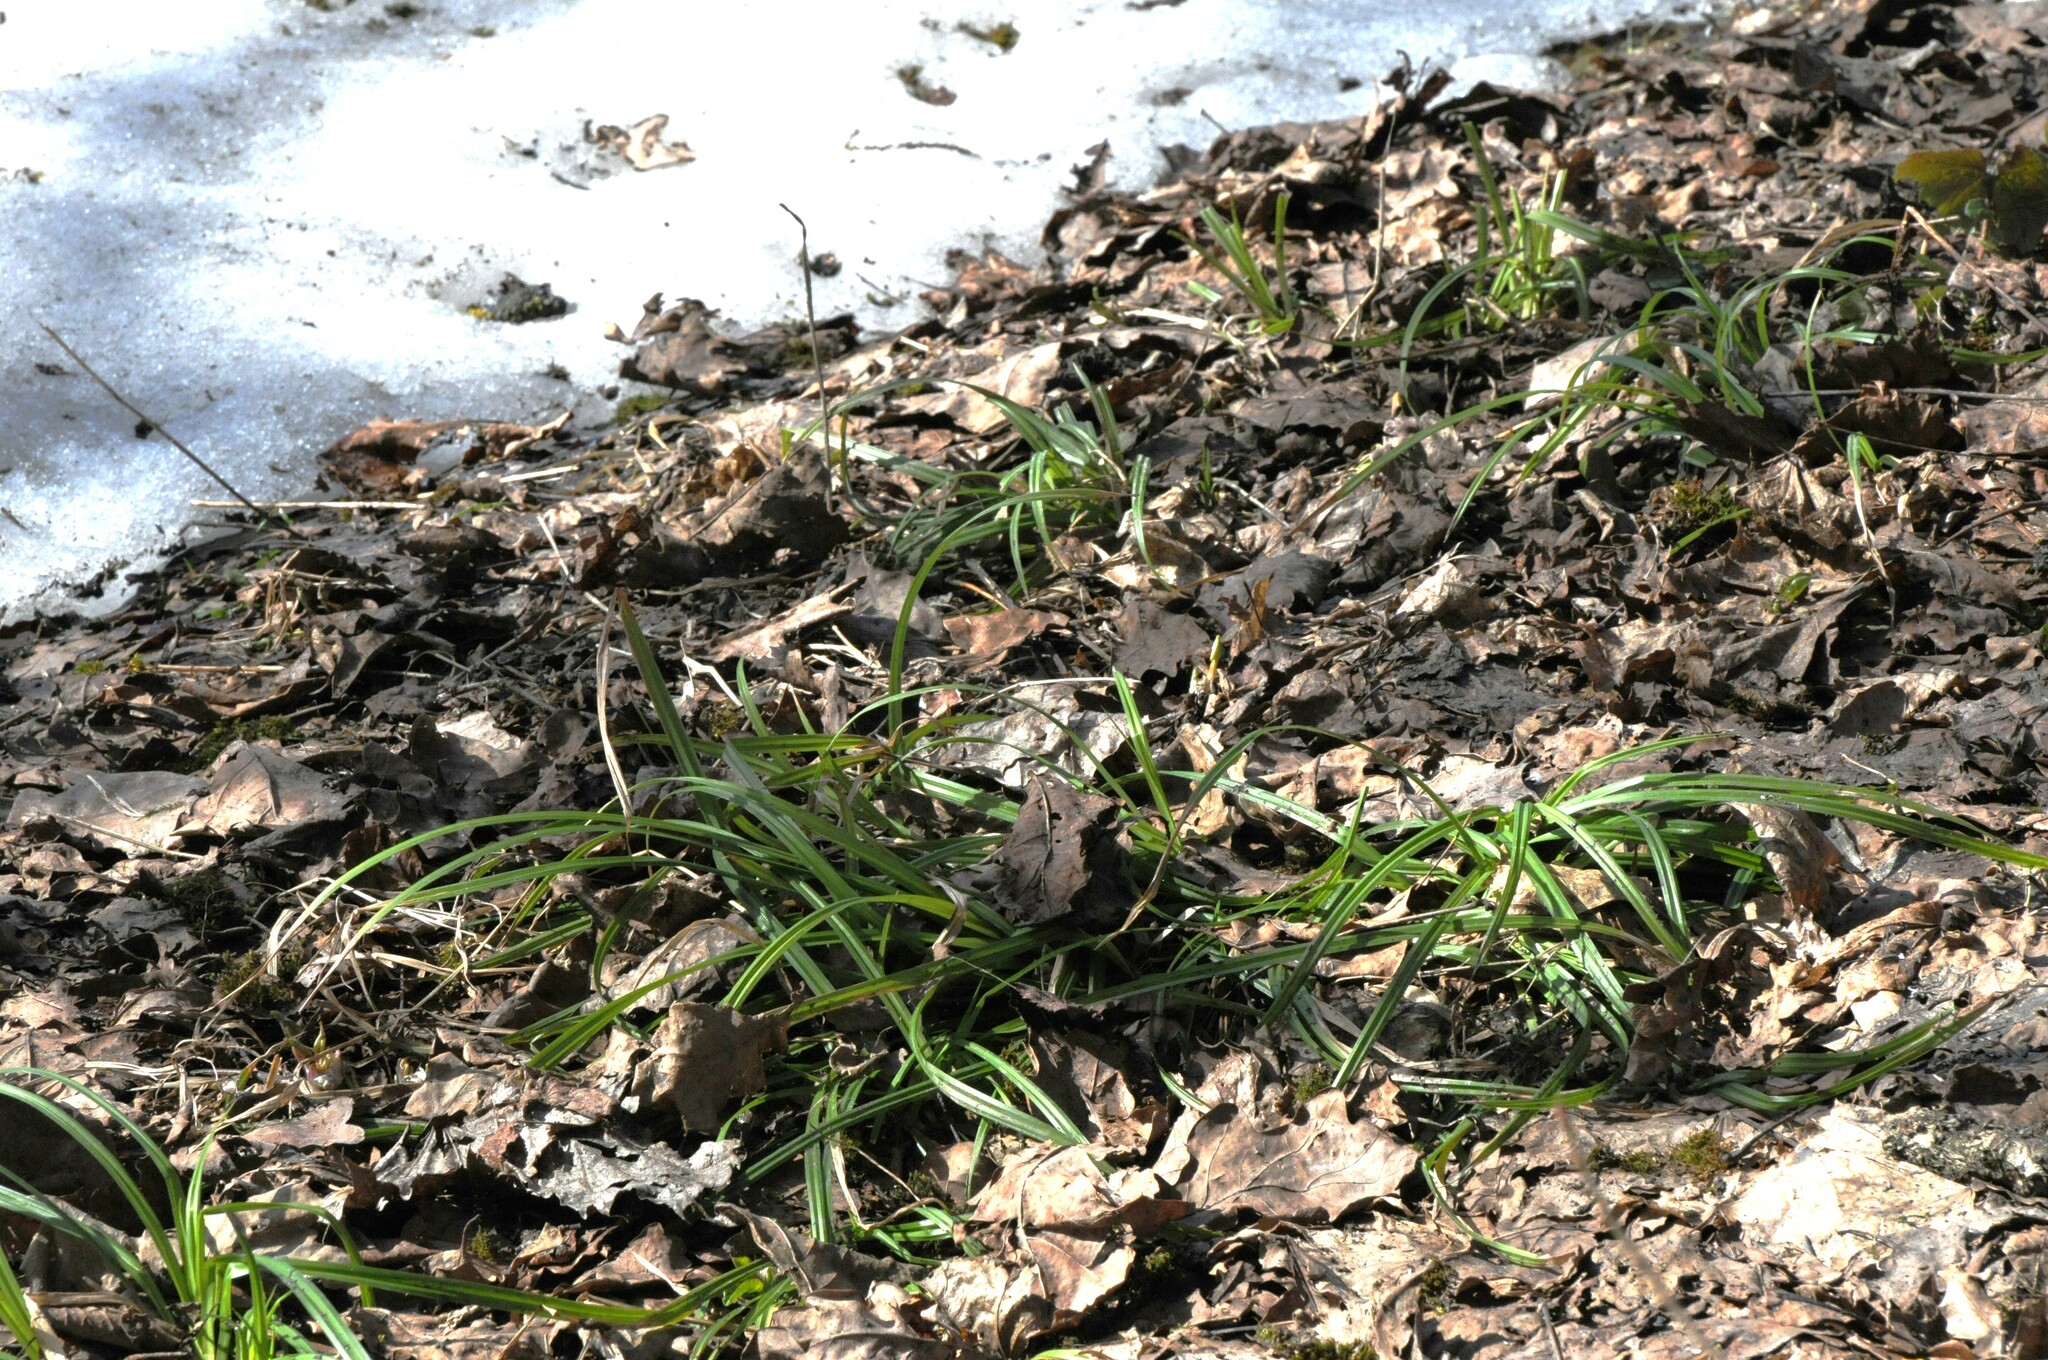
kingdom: Plantae
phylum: Tracheophyta
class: Liliopsida
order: Poales
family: Cyperaceae
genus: Carex
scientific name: Carex pilosa
